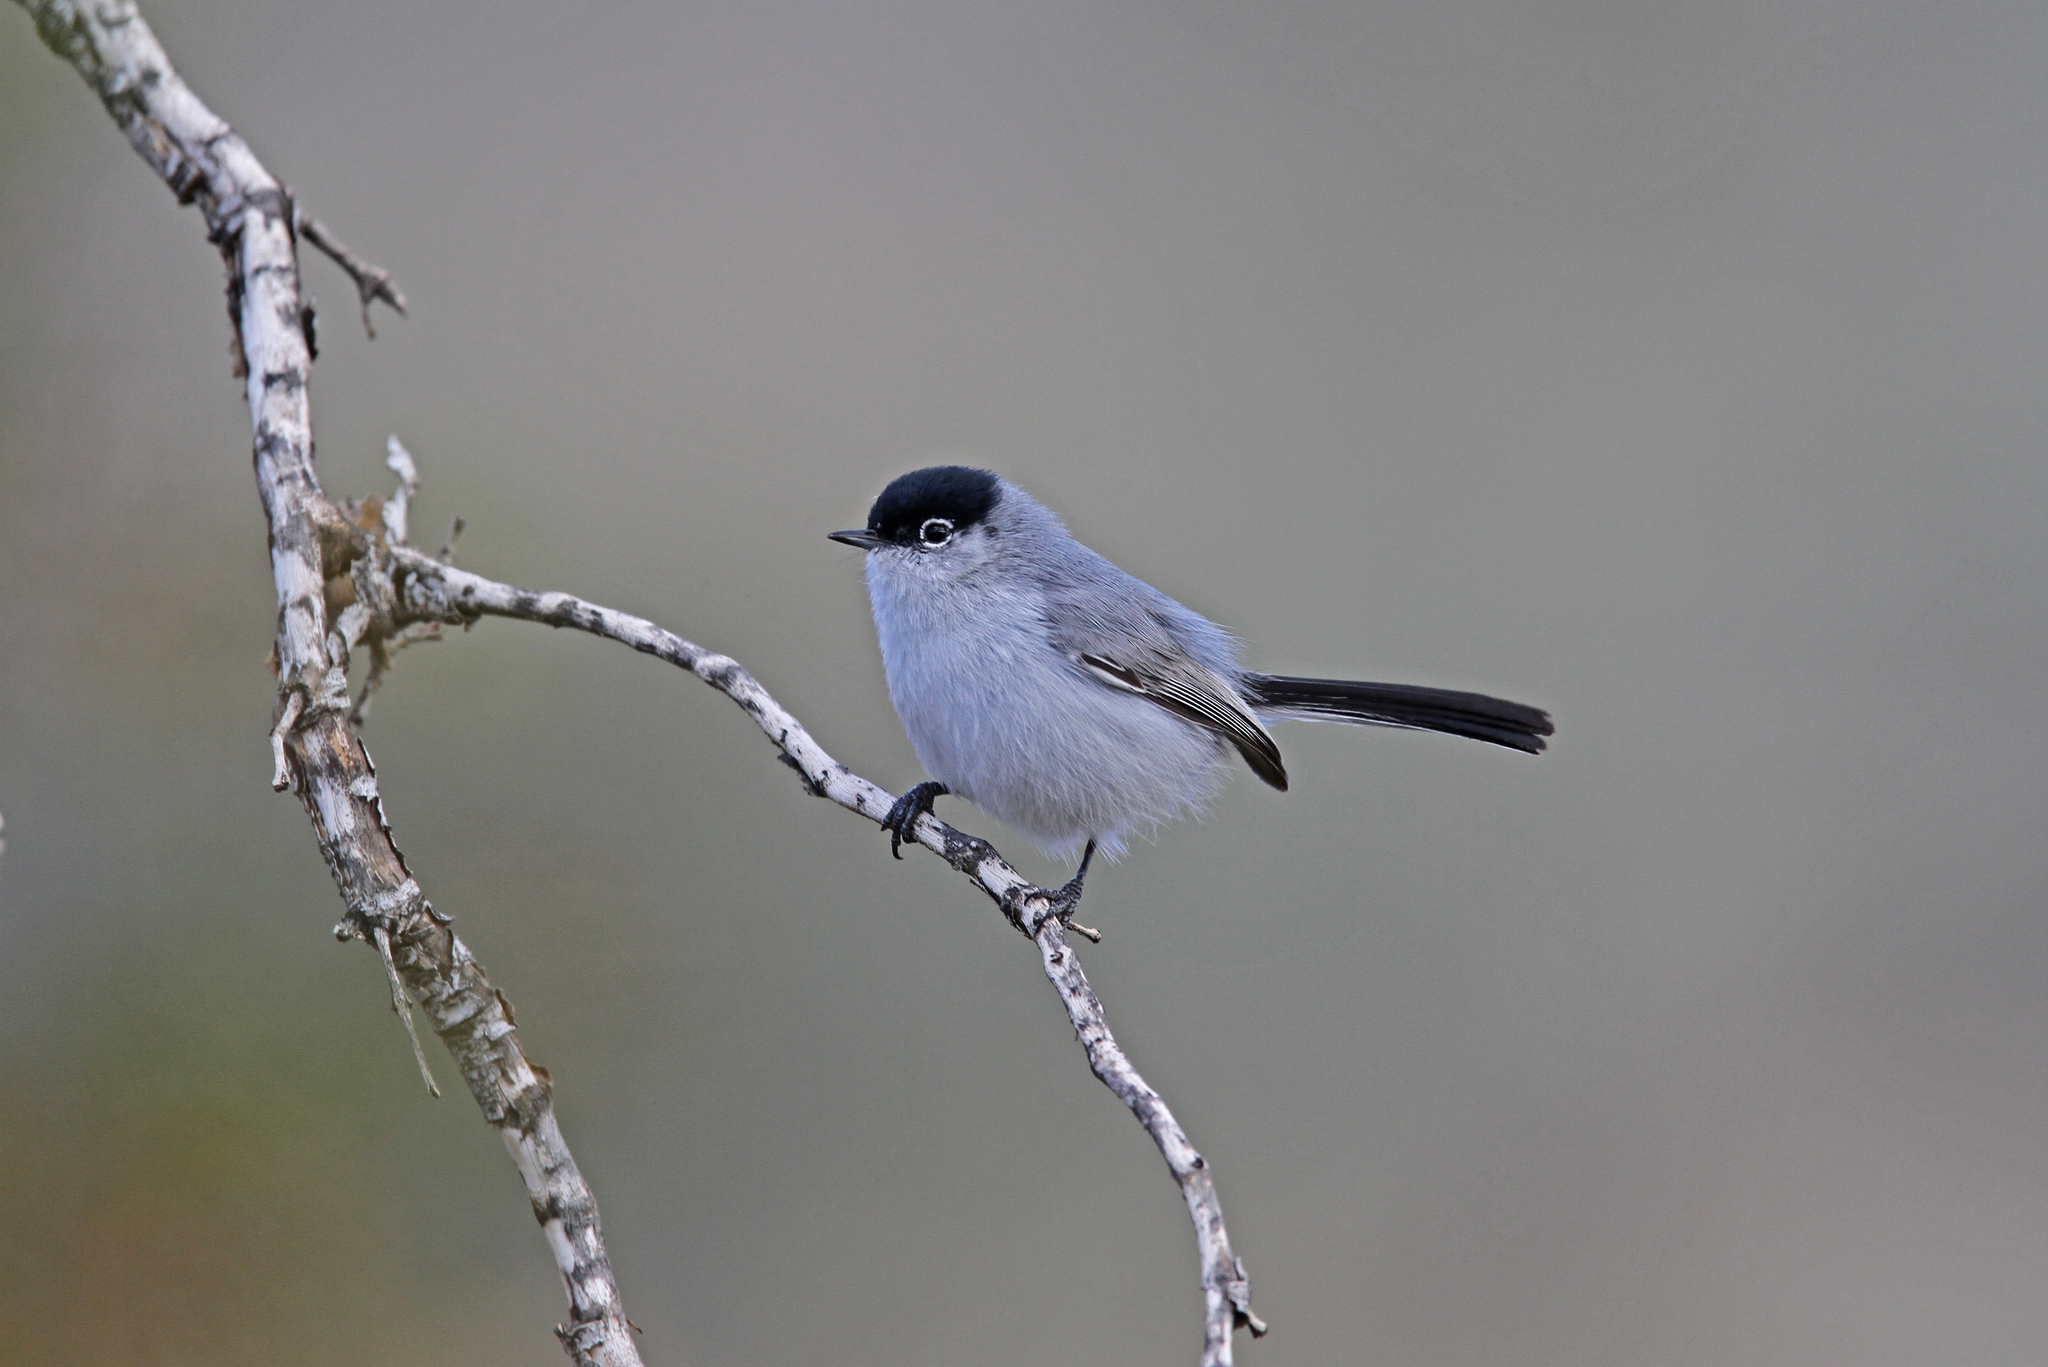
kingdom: Animalia
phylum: Chordata
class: Aves
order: Passeriformes
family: Polioptilidae
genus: Polioptila
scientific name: Polioptila melanura
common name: Black-tailed gnatcatcher
